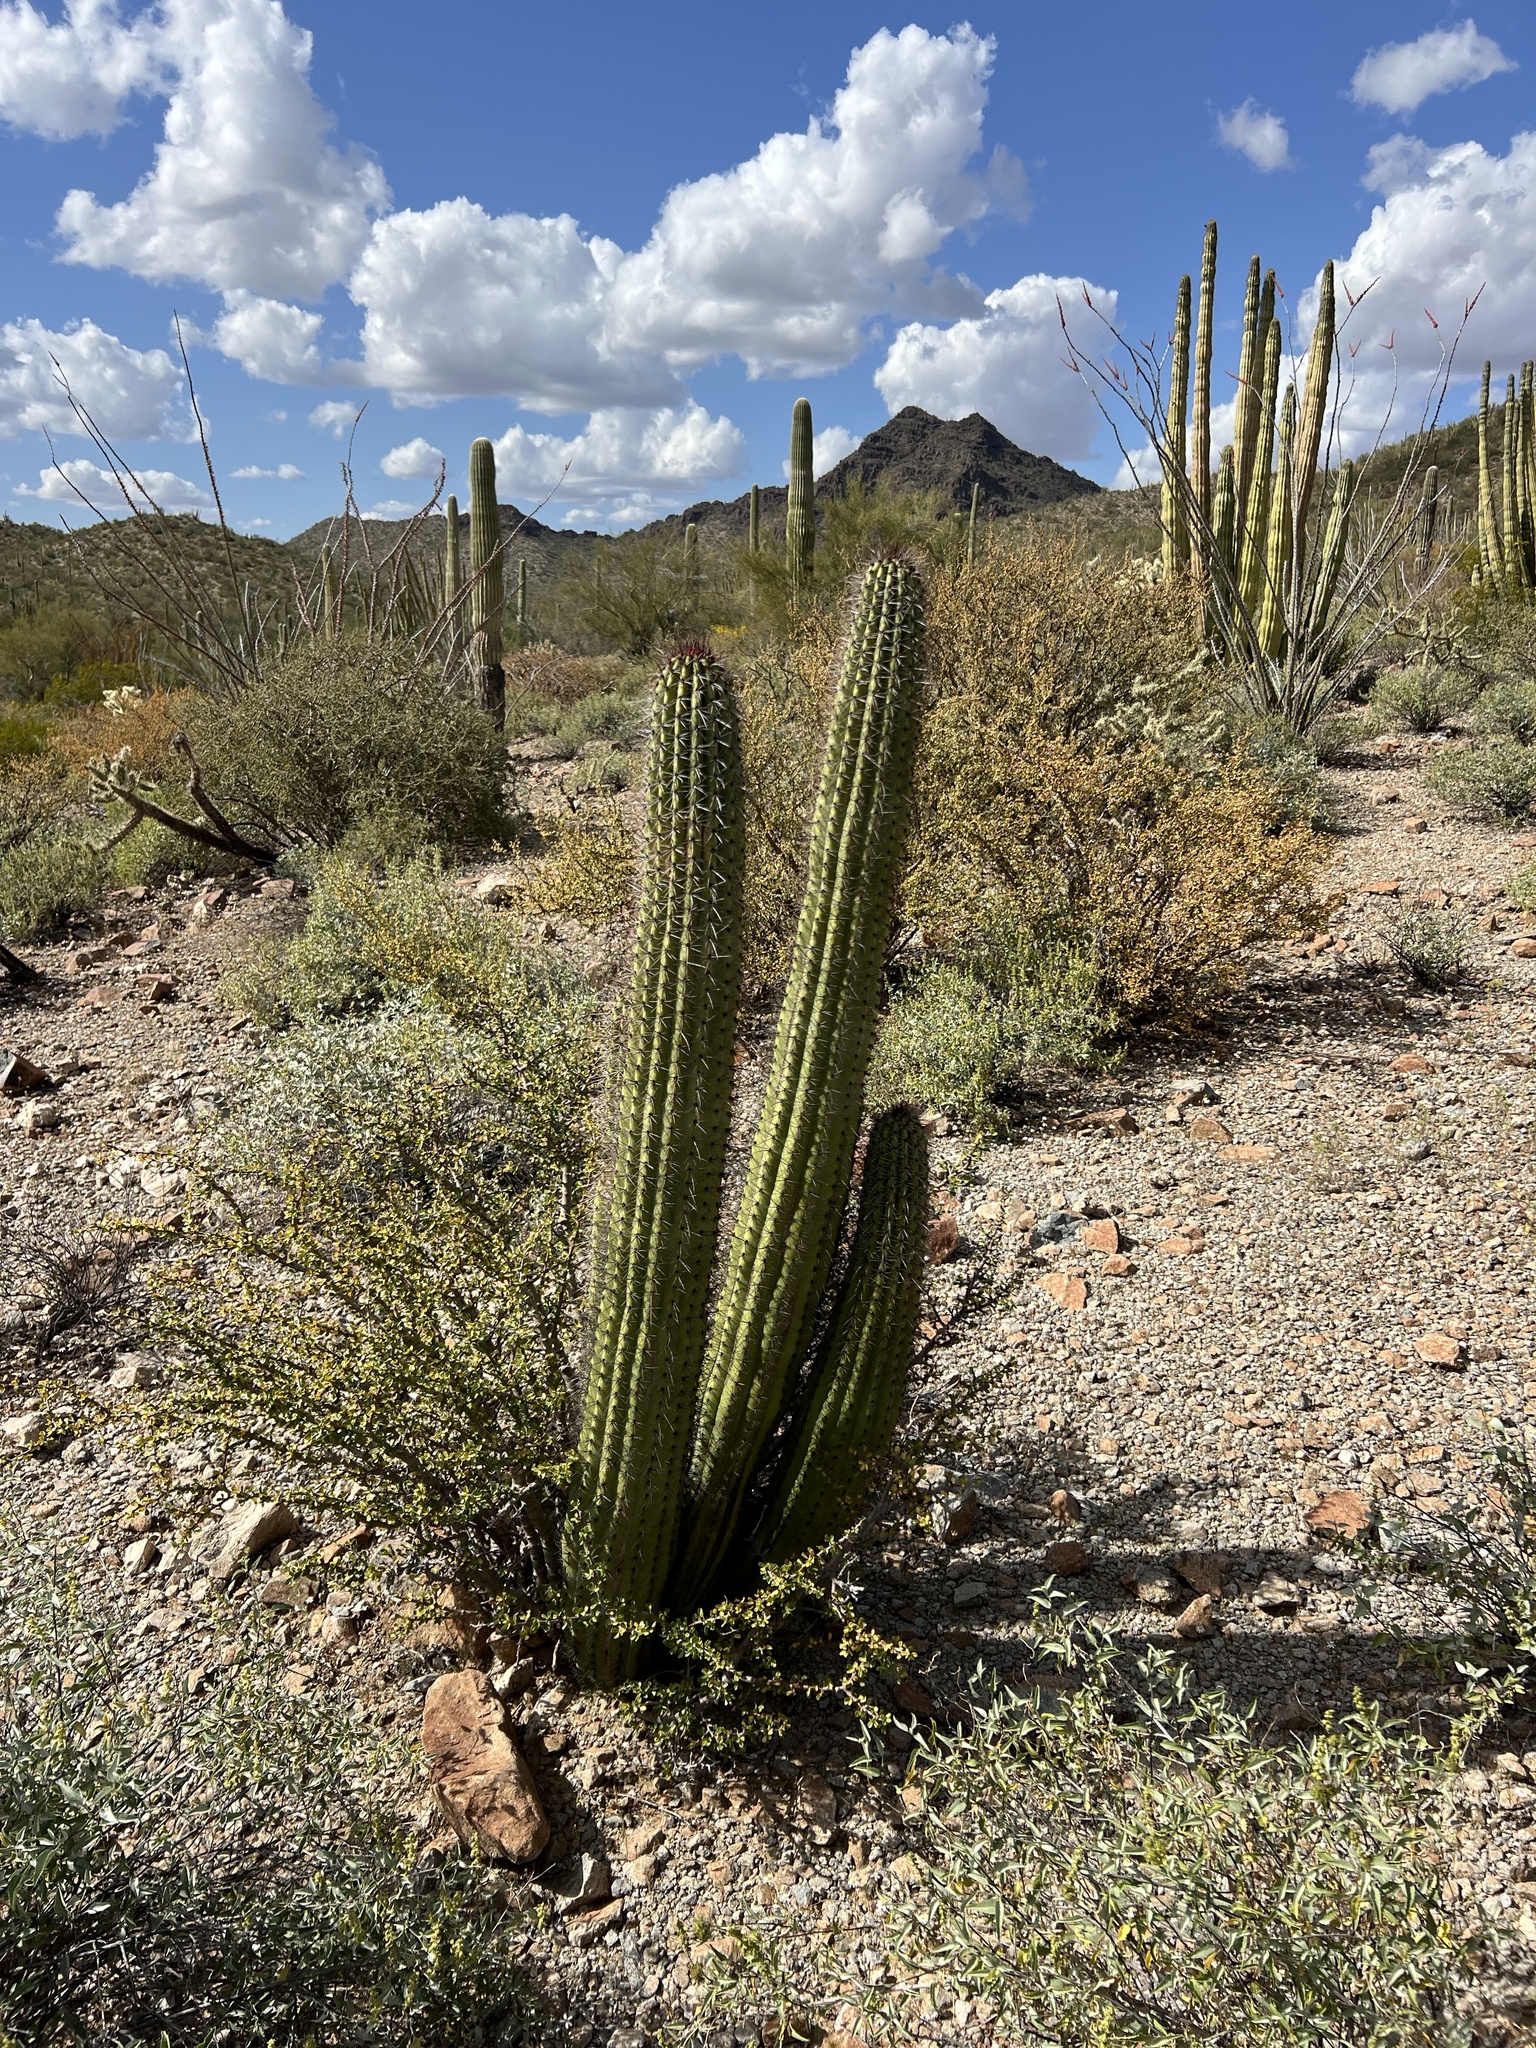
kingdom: Plantae
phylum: Tracheophyta
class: Magnoliopsida
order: Caryophyllales
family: Cactaceae
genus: Stenocereus
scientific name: Stenocereus thurberi
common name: Organ pipe cactus
